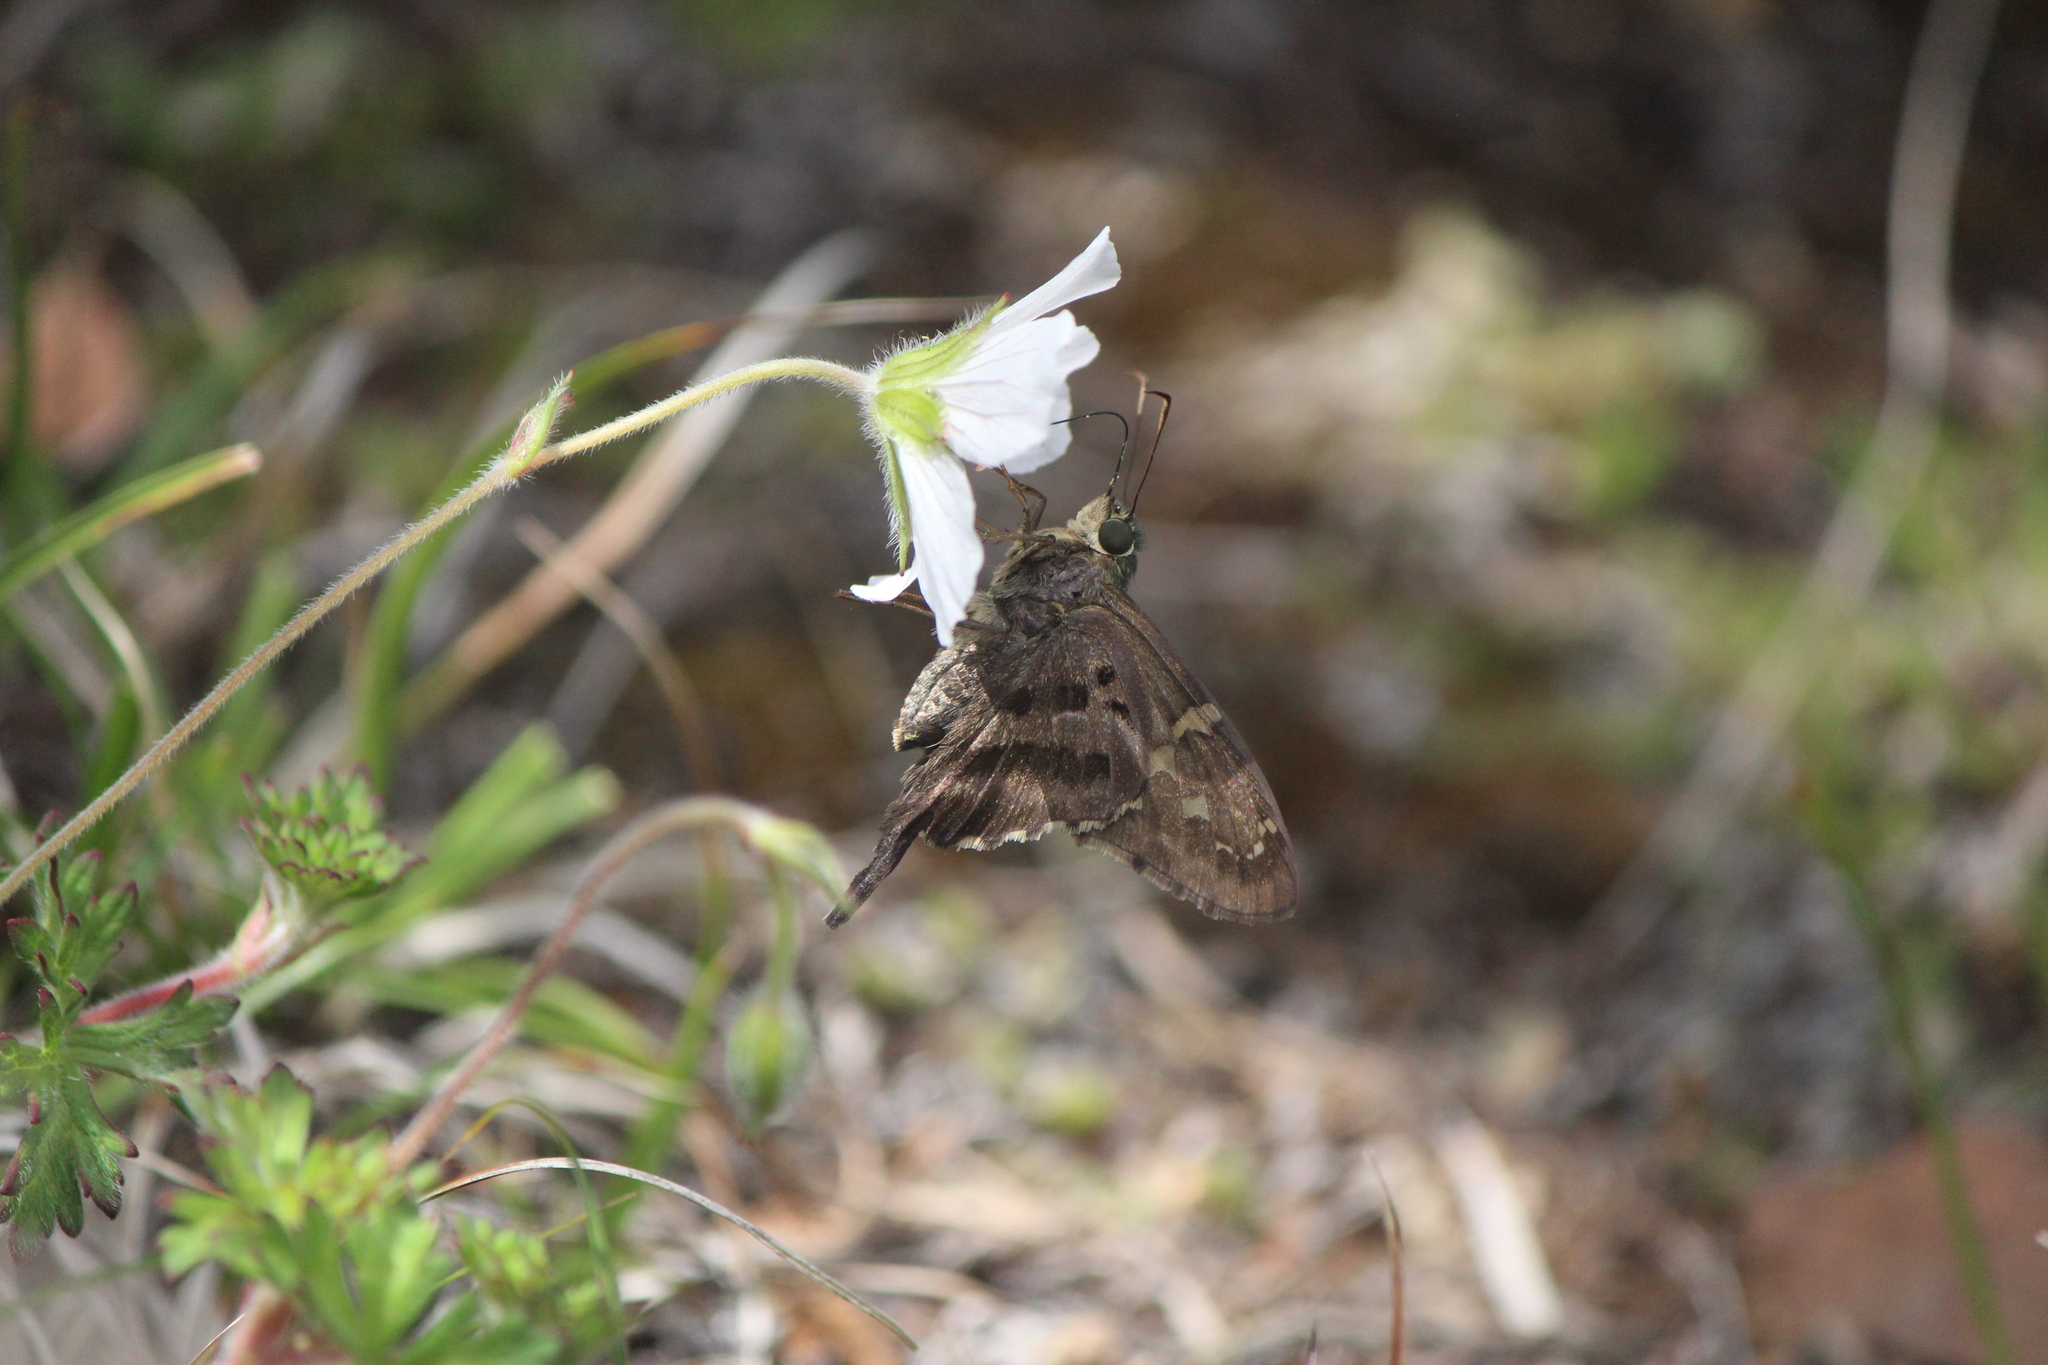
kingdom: Animalia
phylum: Arthropoda
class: Insecta
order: Lepidoptera
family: Hesperiidae
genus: Urbanus
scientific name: Urbanus proteus
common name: Long-tailed skipper
